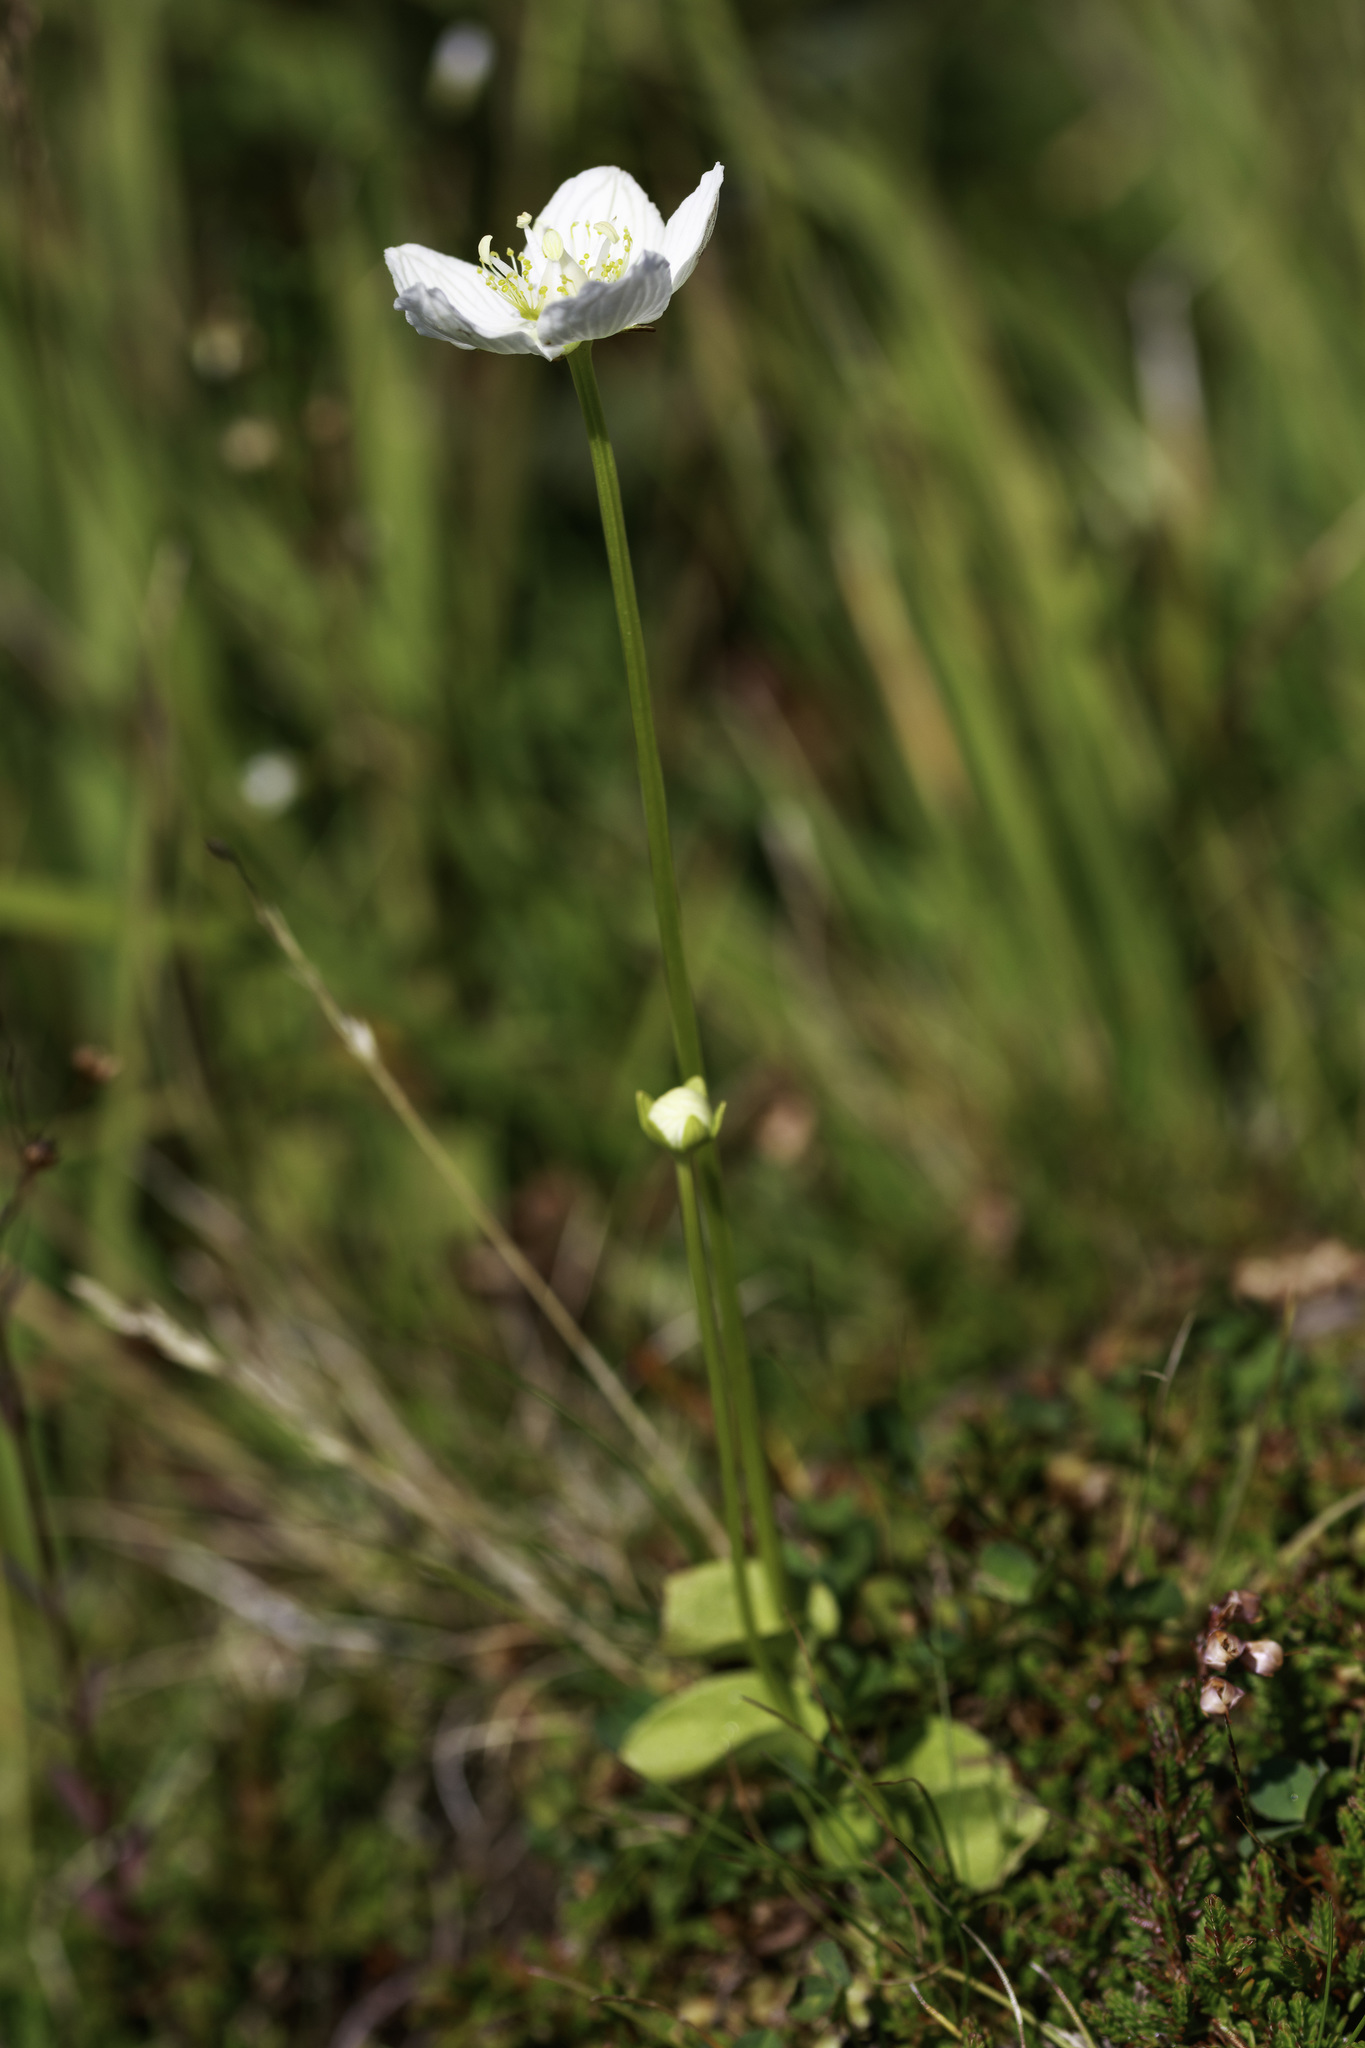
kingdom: Plantae
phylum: Tracheophyta
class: Magnoliopsida
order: Celastrales
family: Parnassiaceae
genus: Parnassia
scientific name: Parnassia palustris
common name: Grass-of-parnassus
